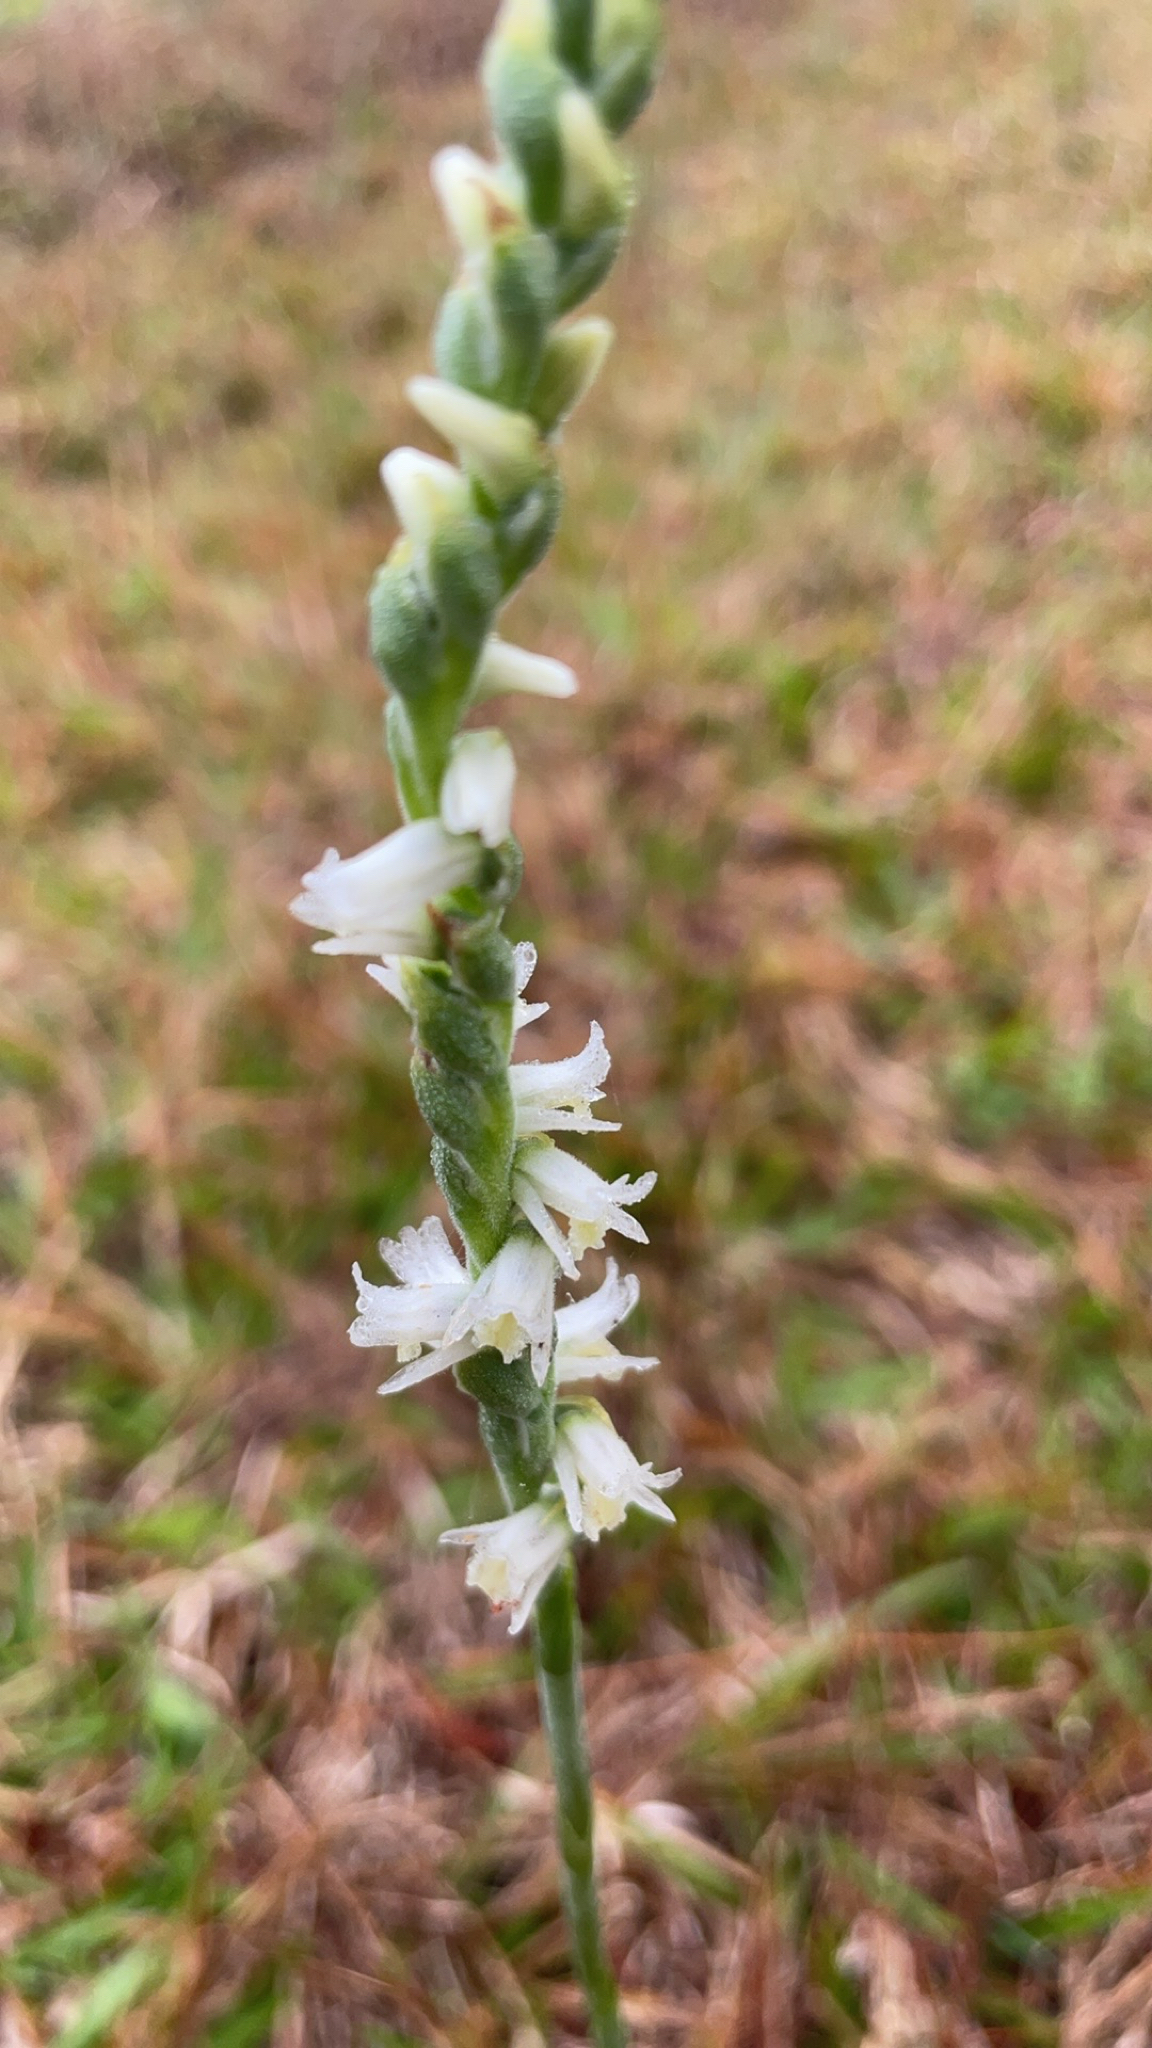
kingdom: Plantae
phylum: Tracheophyta
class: Liliopsida
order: Asparagales
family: Orchidaceae
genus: Spiranthes
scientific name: Spiranthes vernalis
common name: Spring ladies'-tresses
